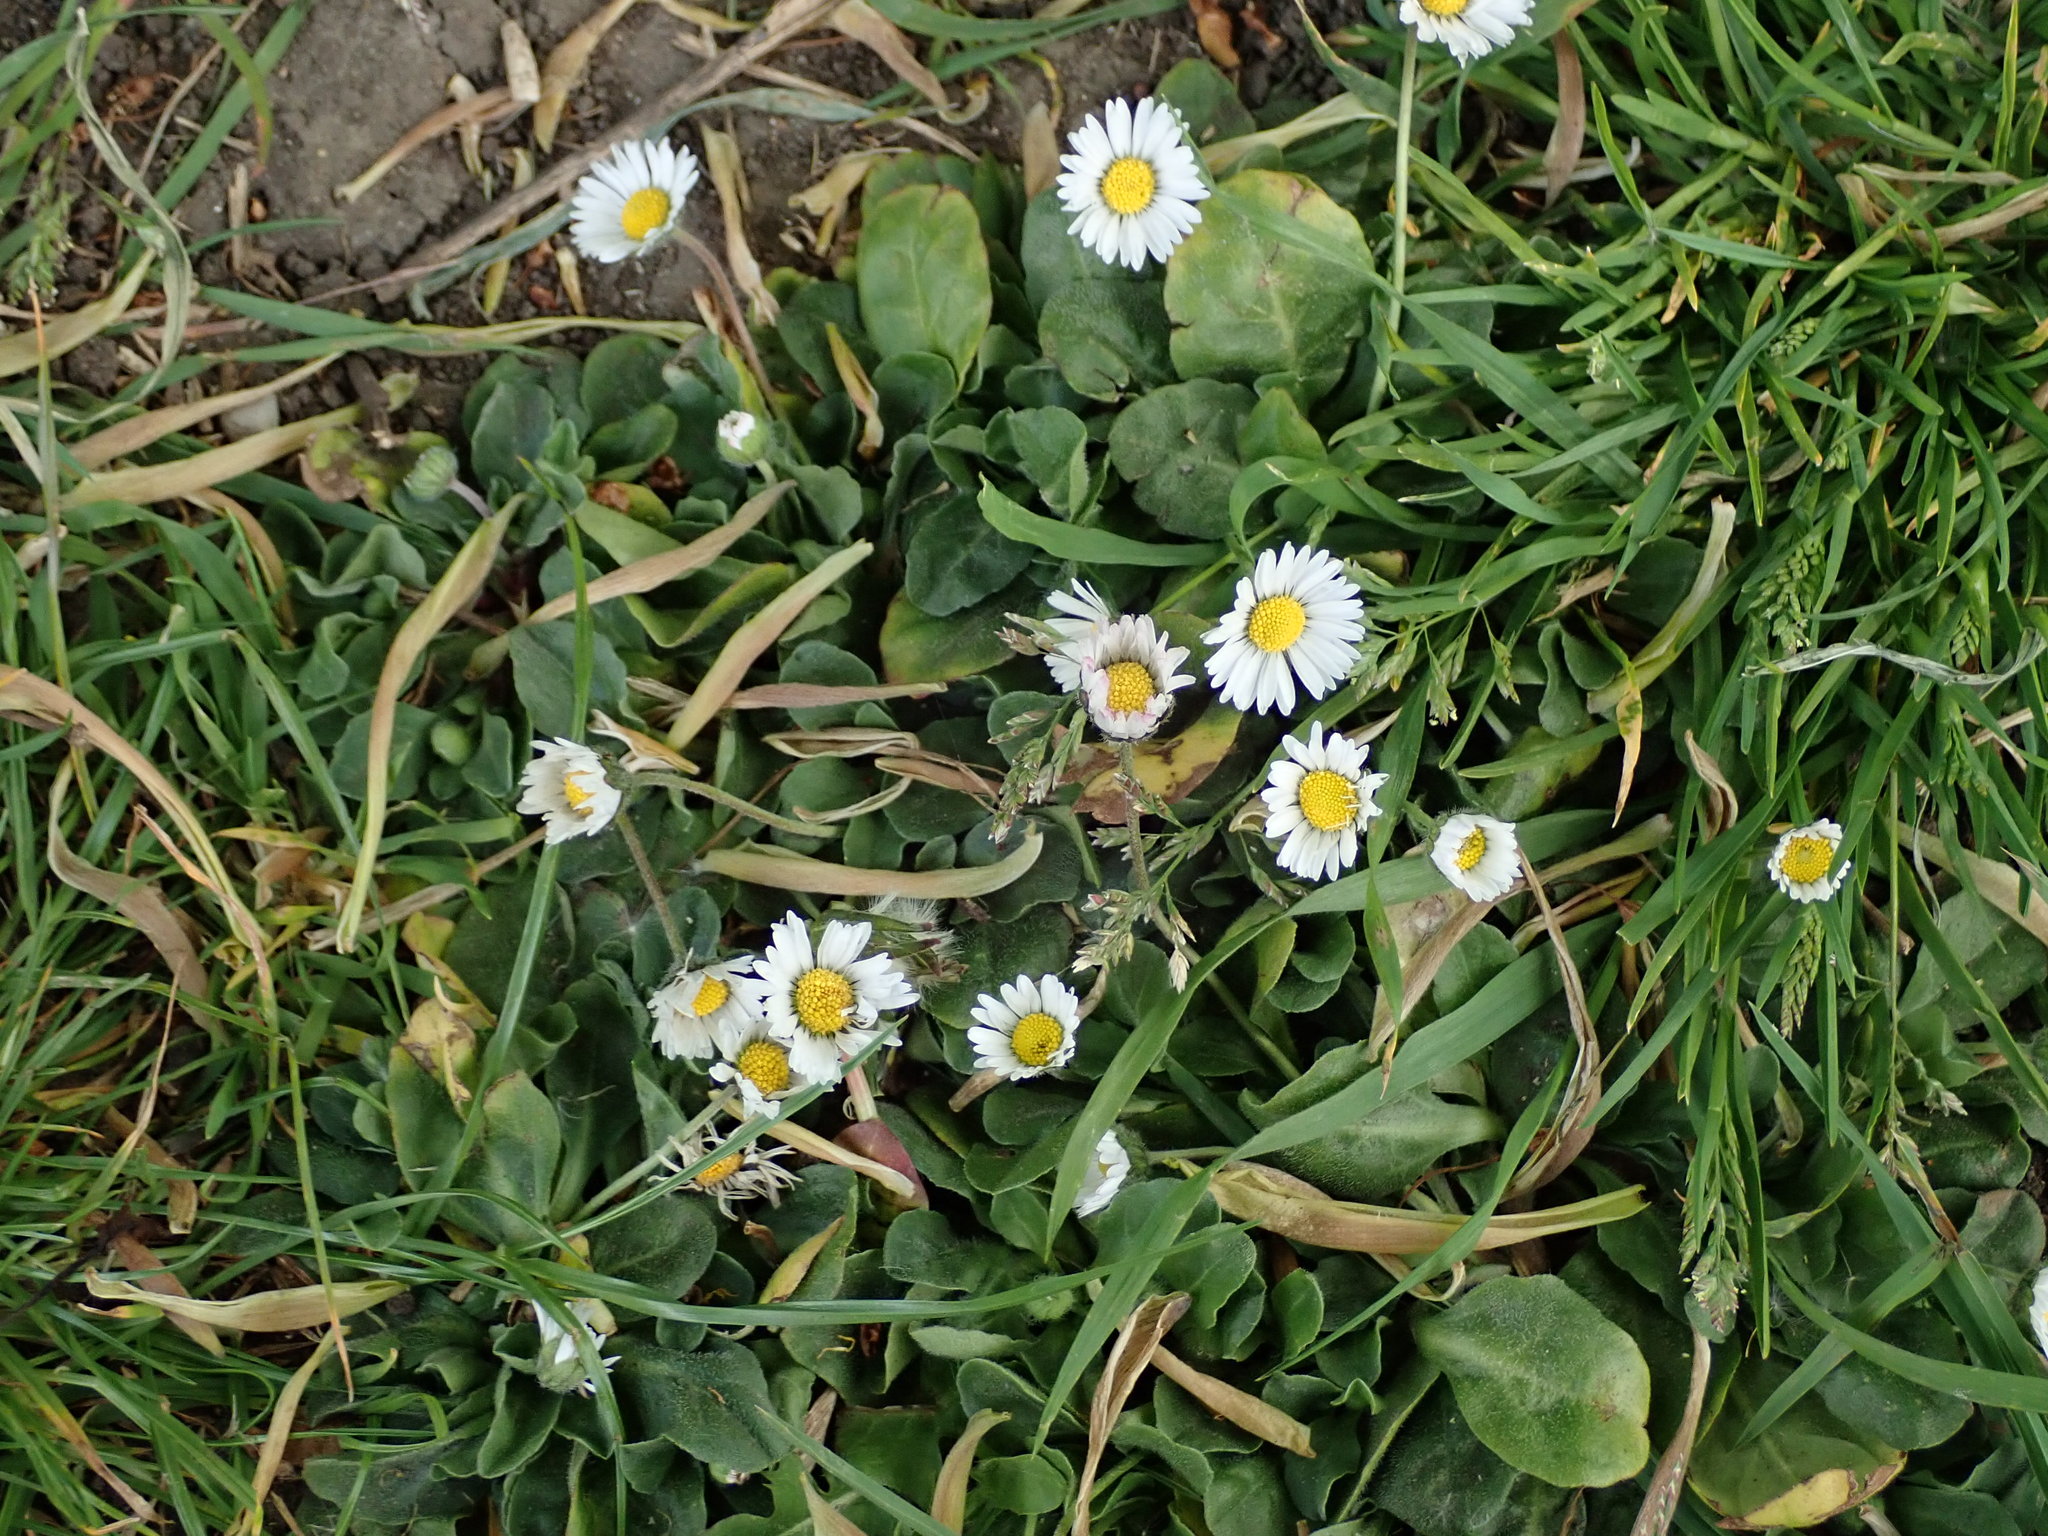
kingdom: Plantae
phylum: Tracheophyta
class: Magnoliopsida
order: Asterales
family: Asteraceae
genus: Bellis
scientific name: Bellis perennis
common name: Lawndaisy
